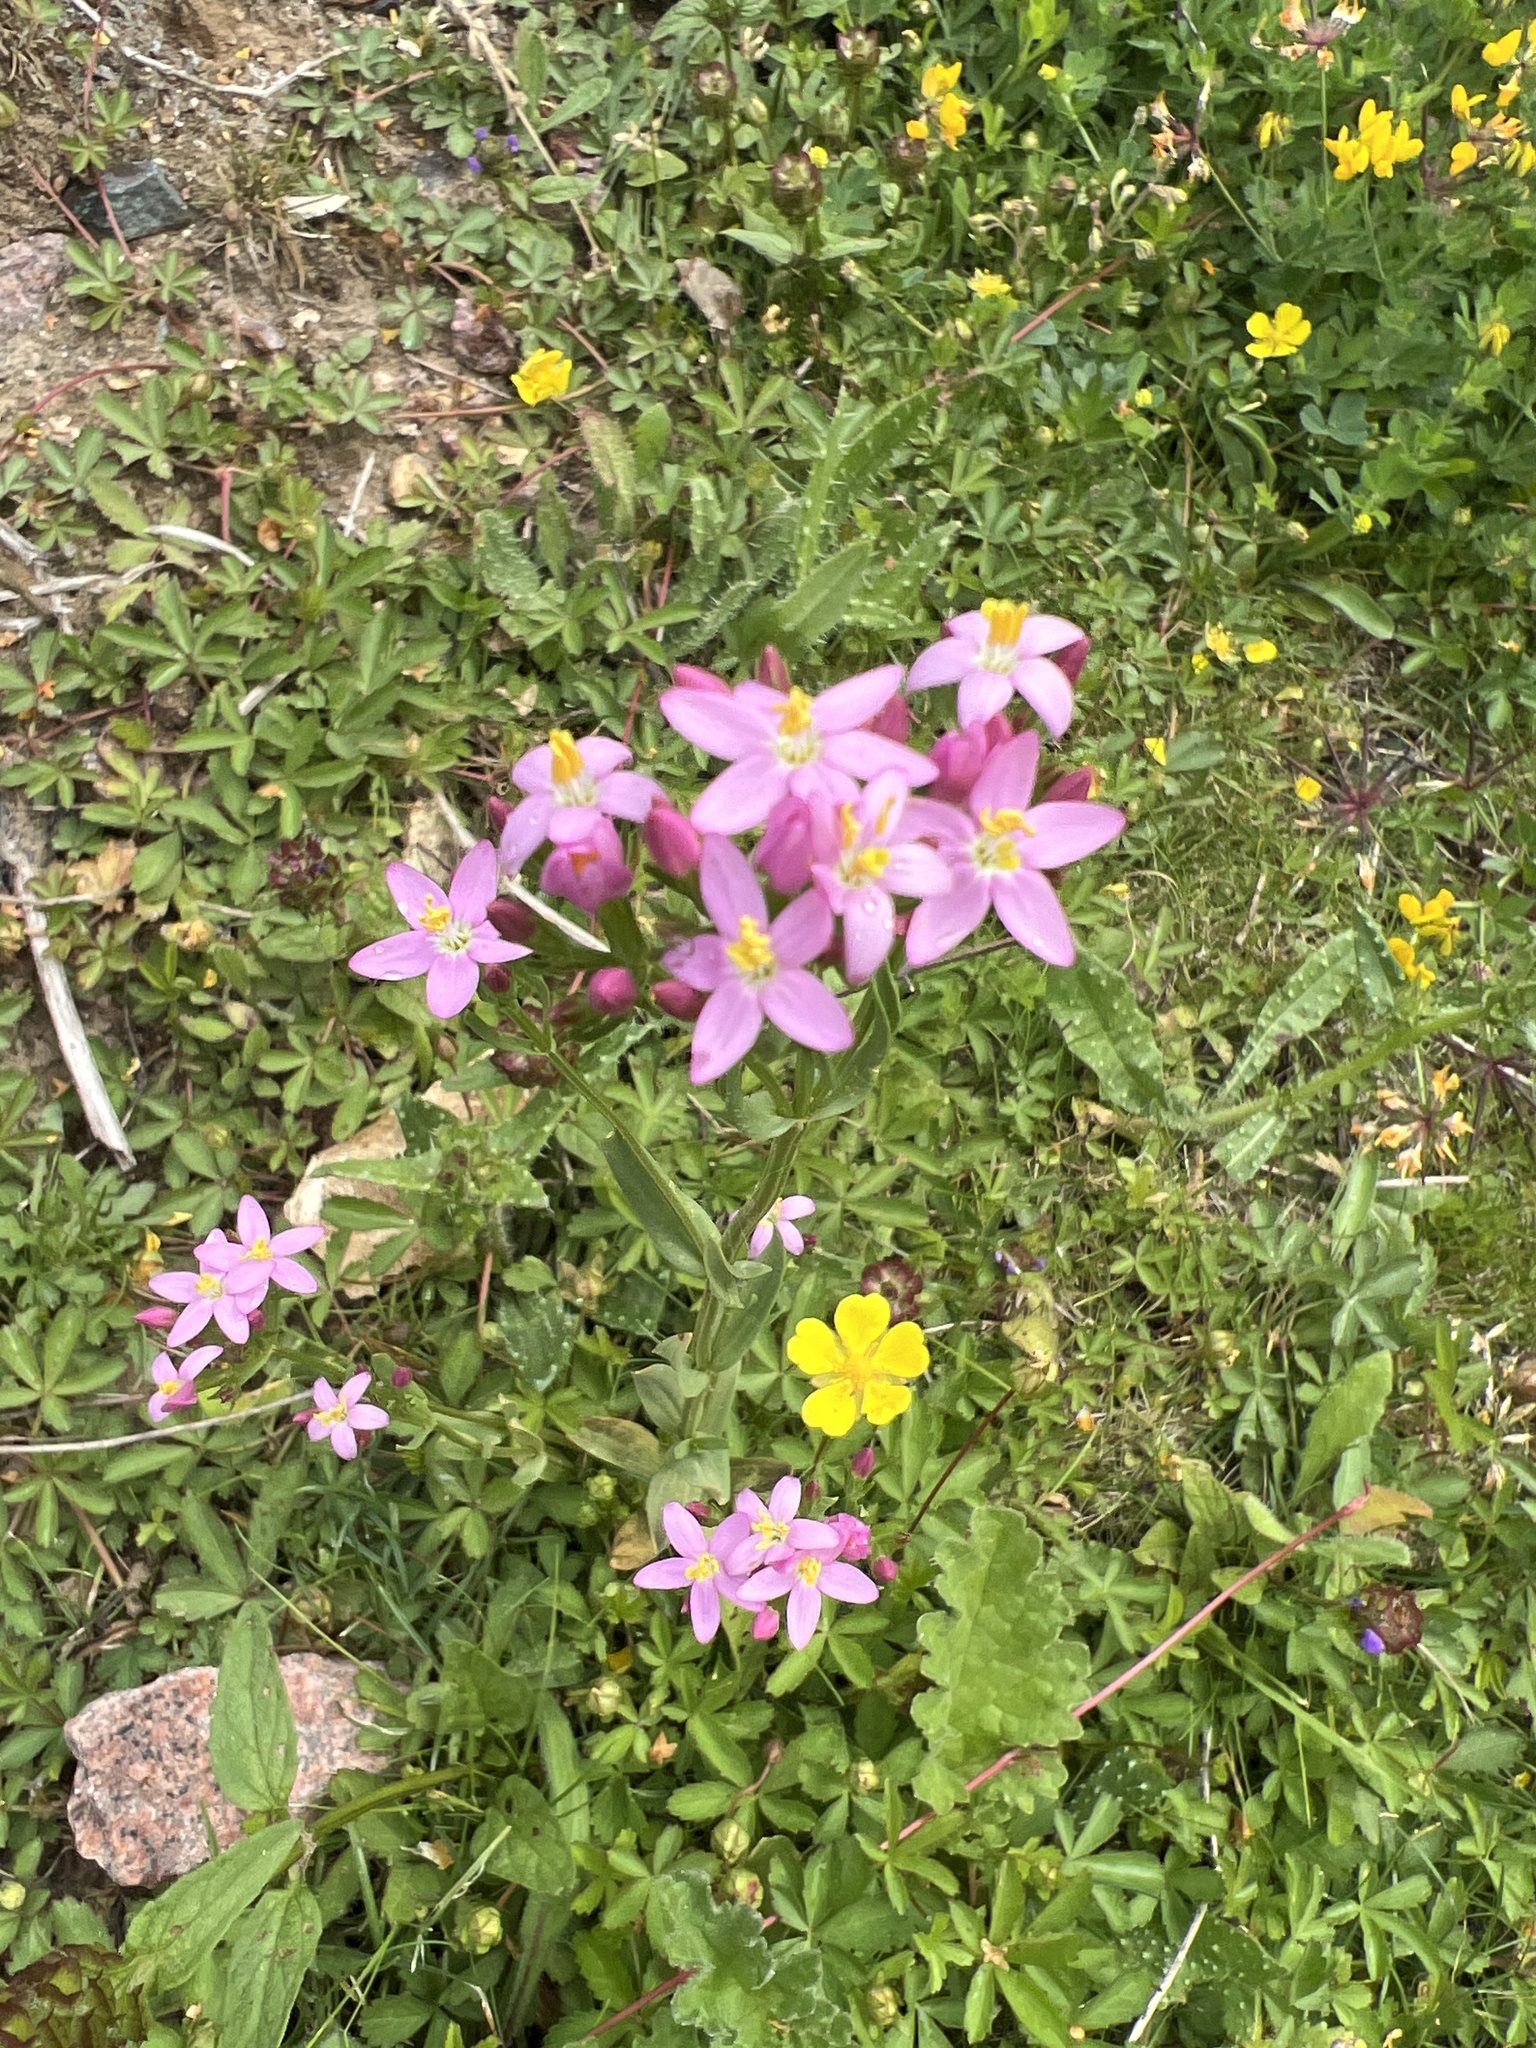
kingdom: Plantae
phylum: Tracheophyta
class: Magnoliopsida
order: Gentianales
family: Gentianaceae
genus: Centaurium
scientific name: Centaurium erythraea
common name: Common centaury
